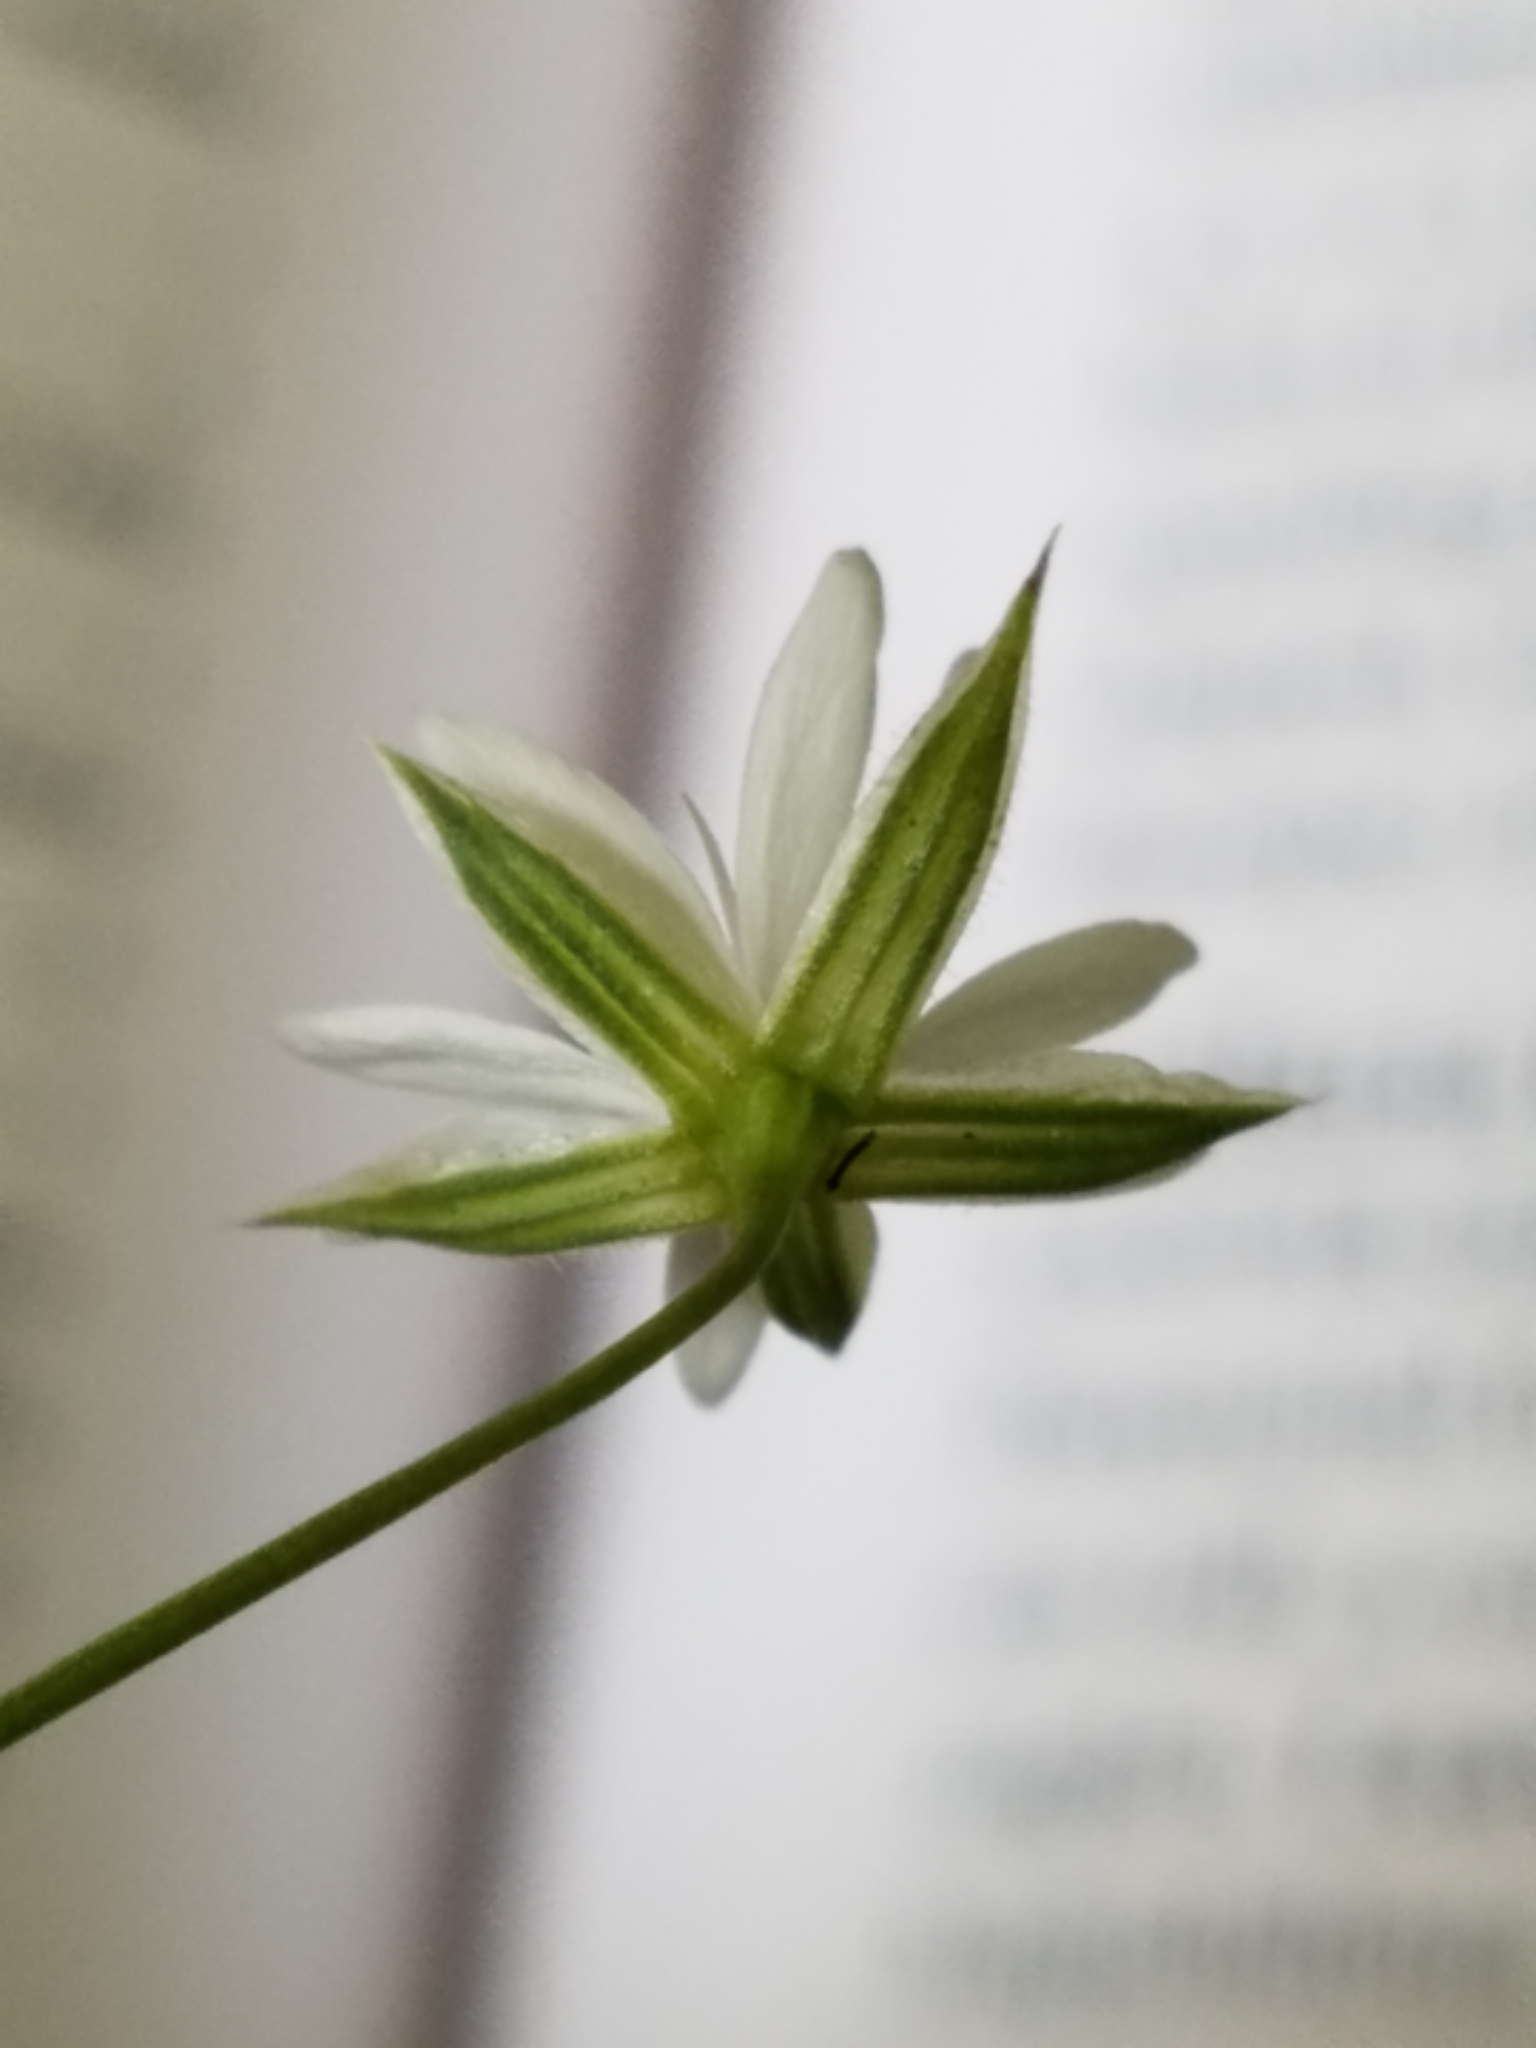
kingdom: Plantae
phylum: Tracheophyta
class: Magnoliopsida
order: Caryophyllales
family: Caryophyllaceae
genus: Stellaria
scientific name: Stellaria graminea
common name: Grass-like starwort
